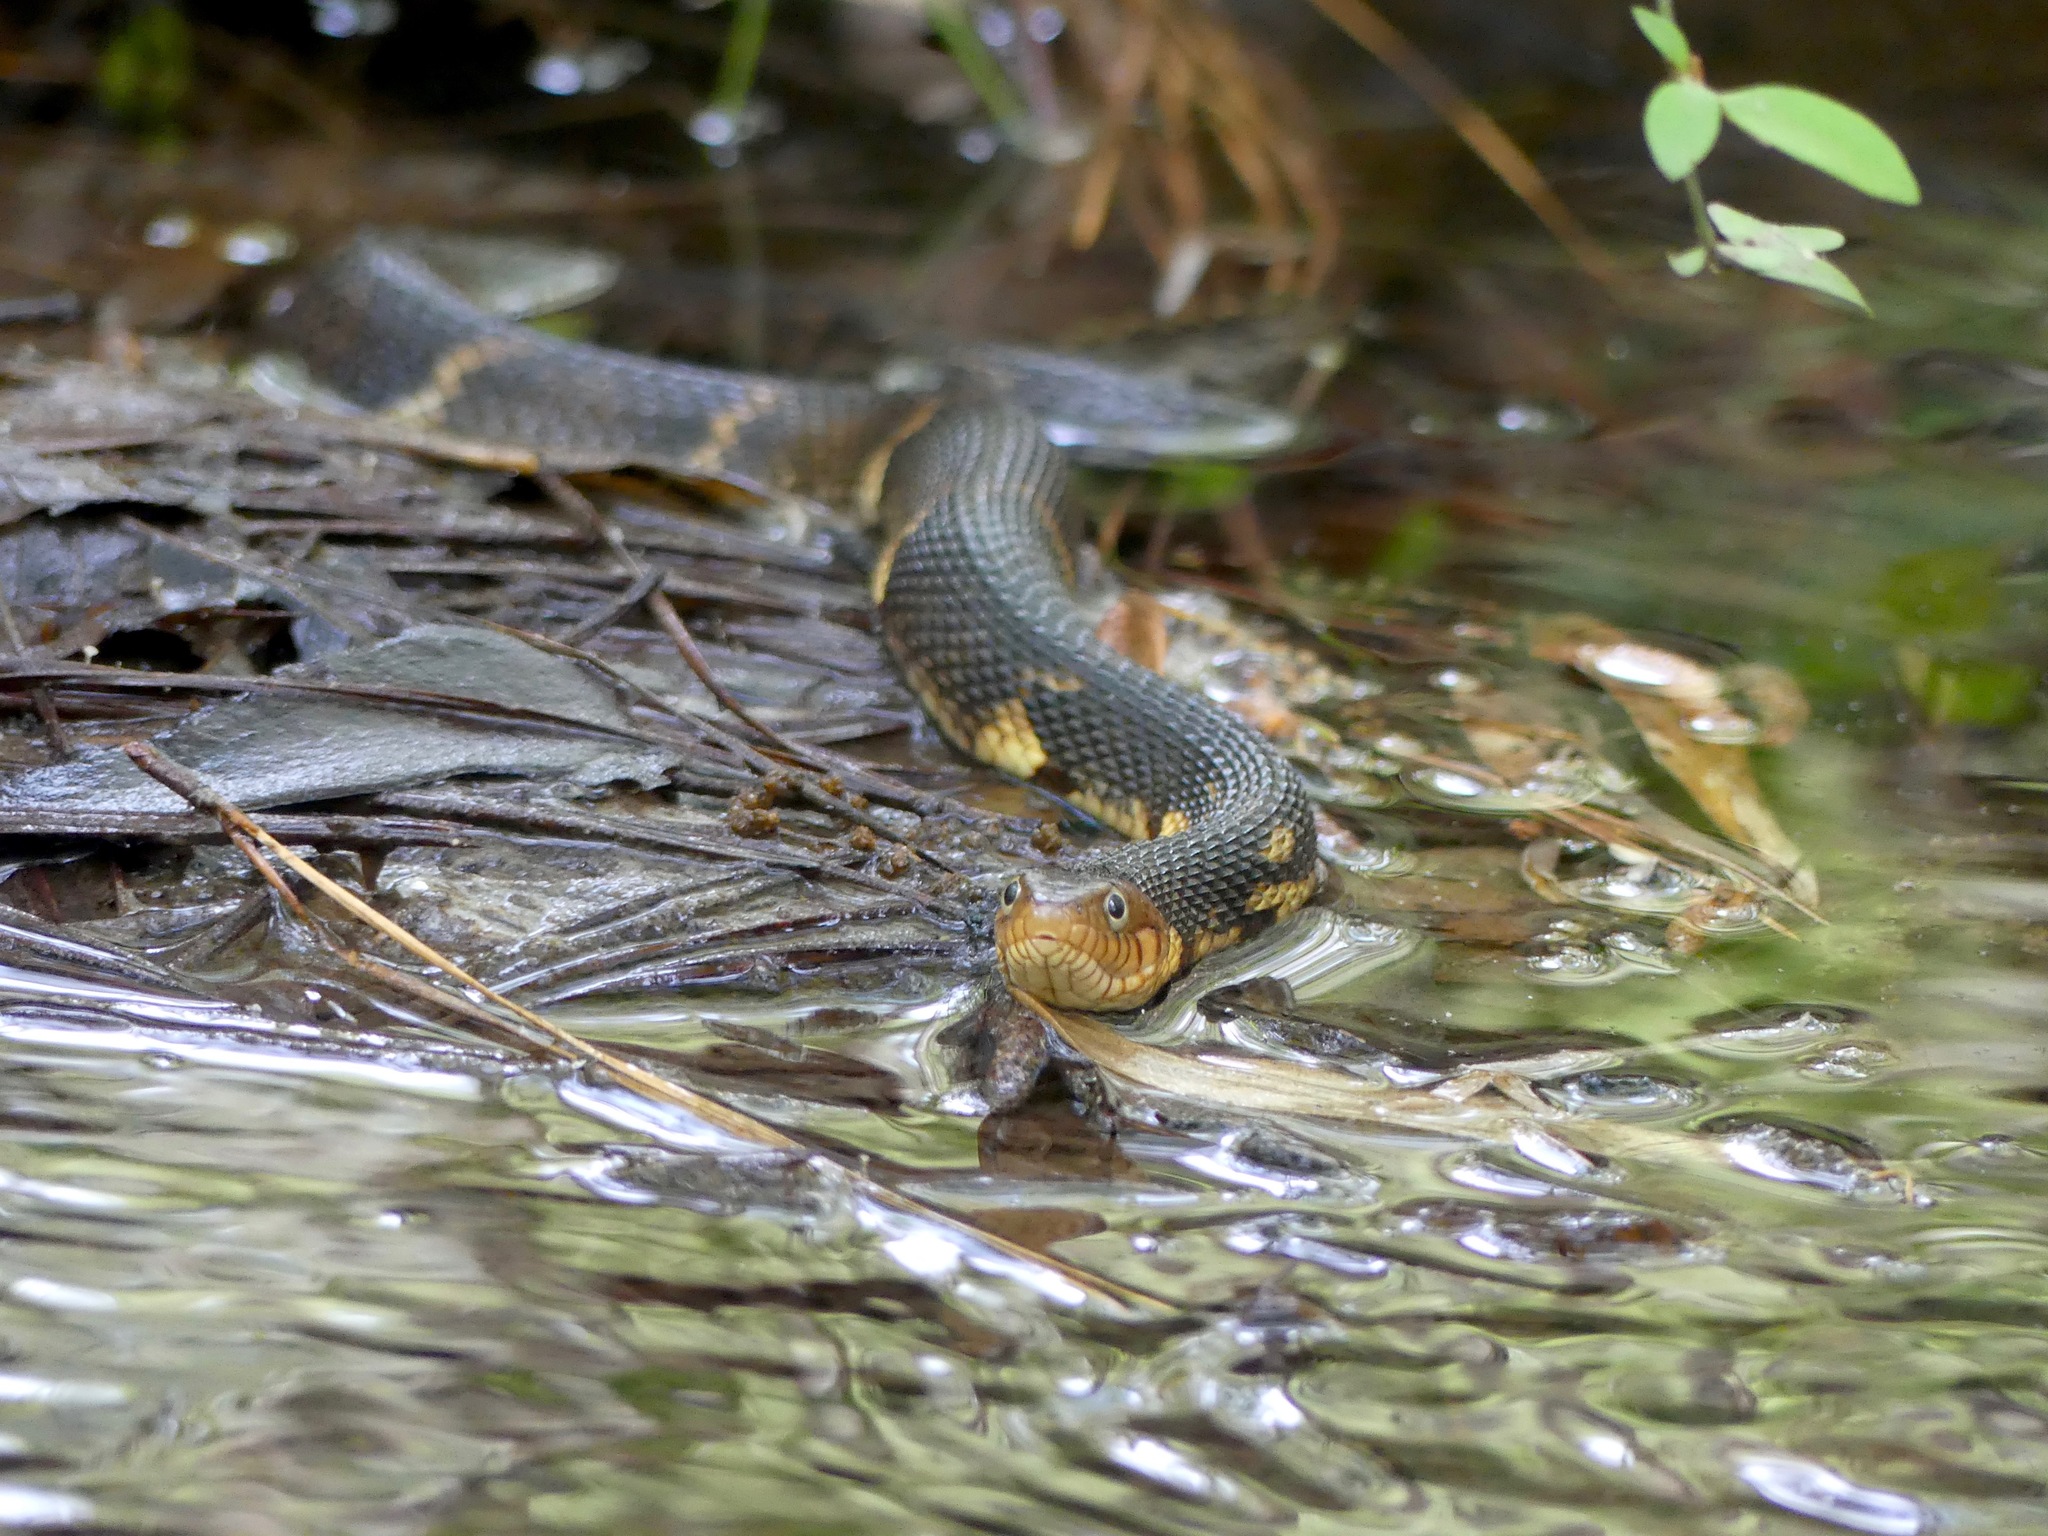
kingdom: Animalia
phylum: Chordata
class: Squamata
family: Colubridae
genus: Nerodia
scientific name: Nerodia fasciata
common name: Southern water snake
